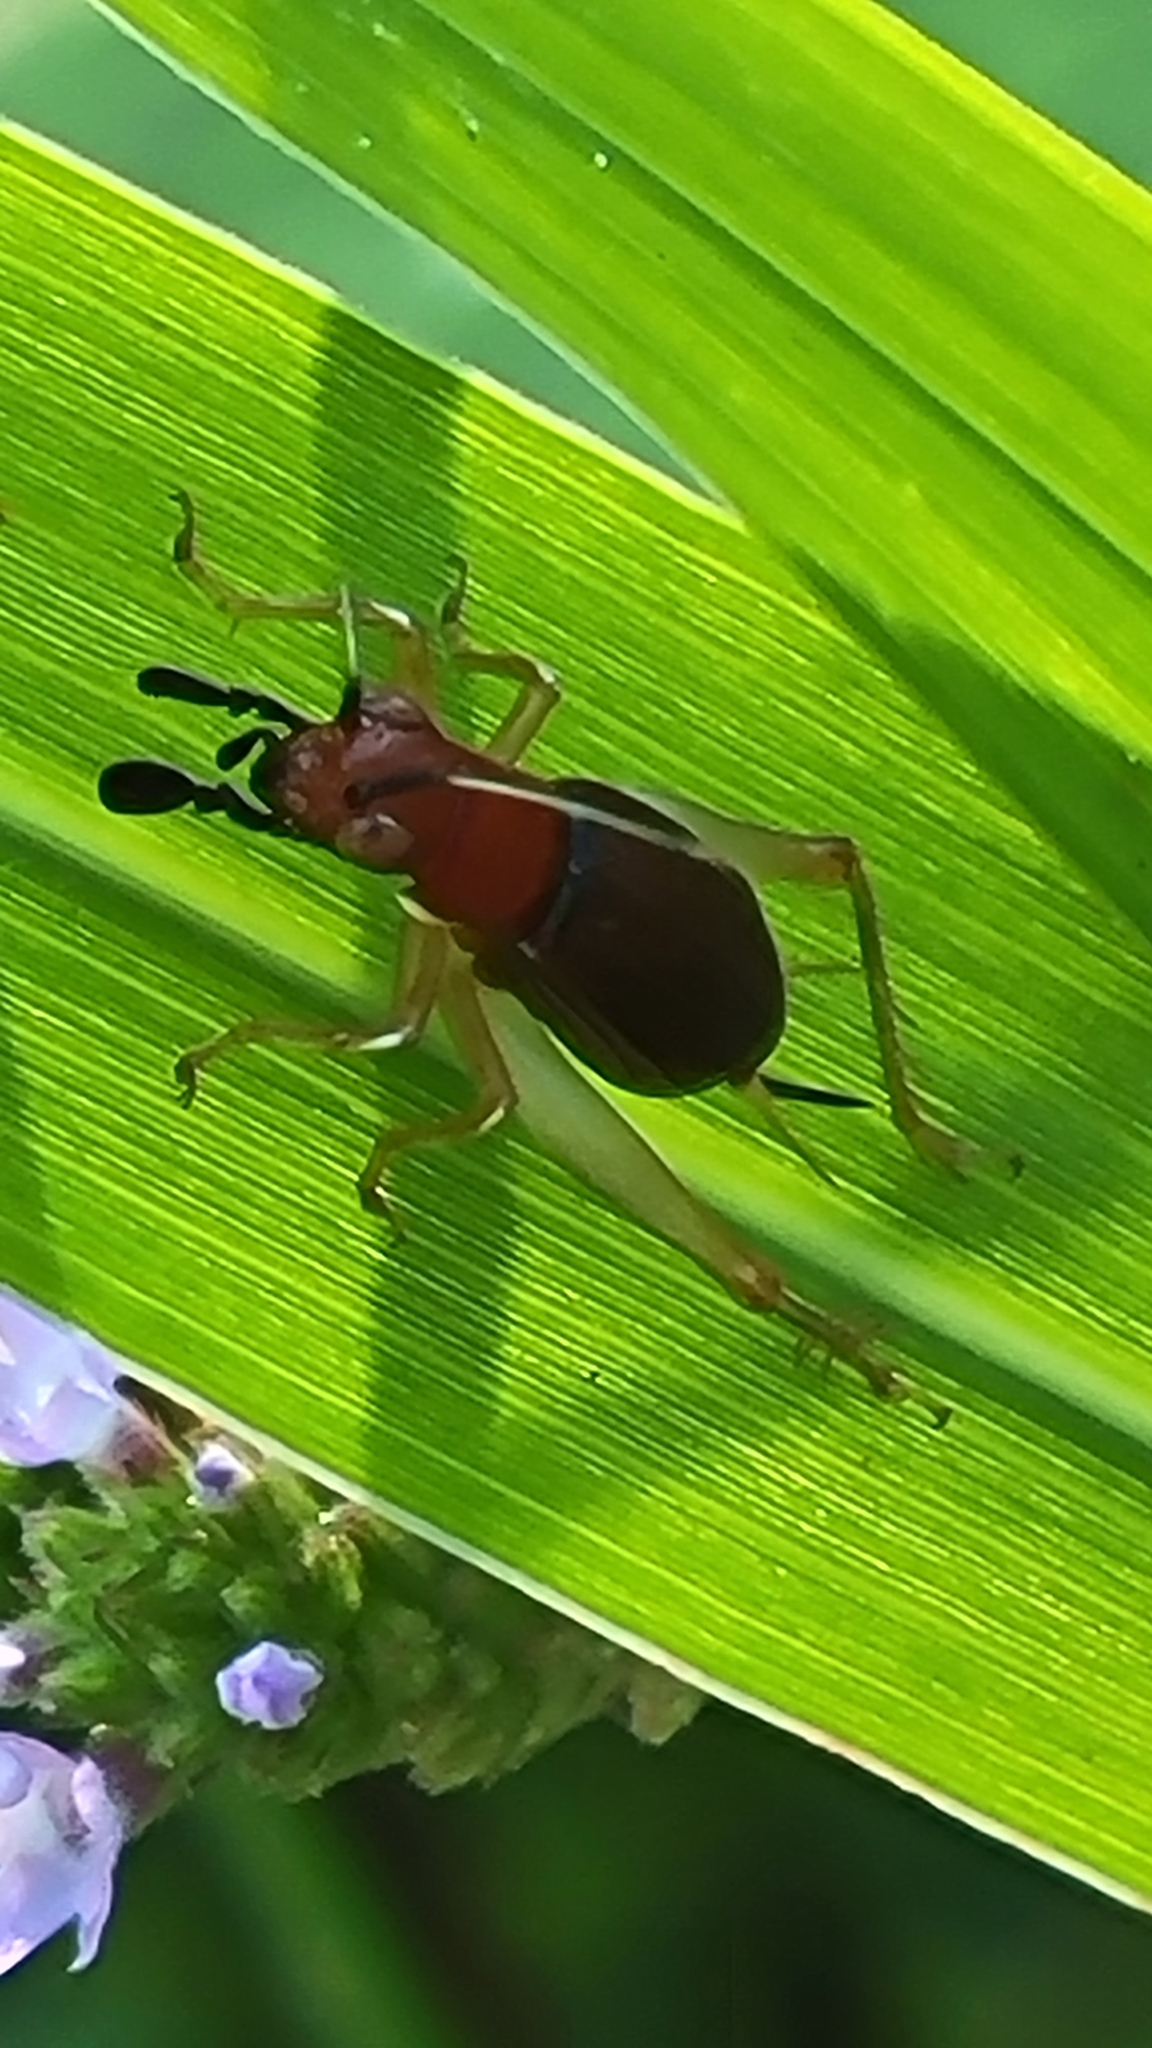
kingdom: Animalia
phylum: Arthropoda
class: Insecta
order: Orthoptera
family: Trigonidiidae
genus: Phyllopalpus
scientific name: Phyllopalpus pulchellus
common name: Handsome trig
